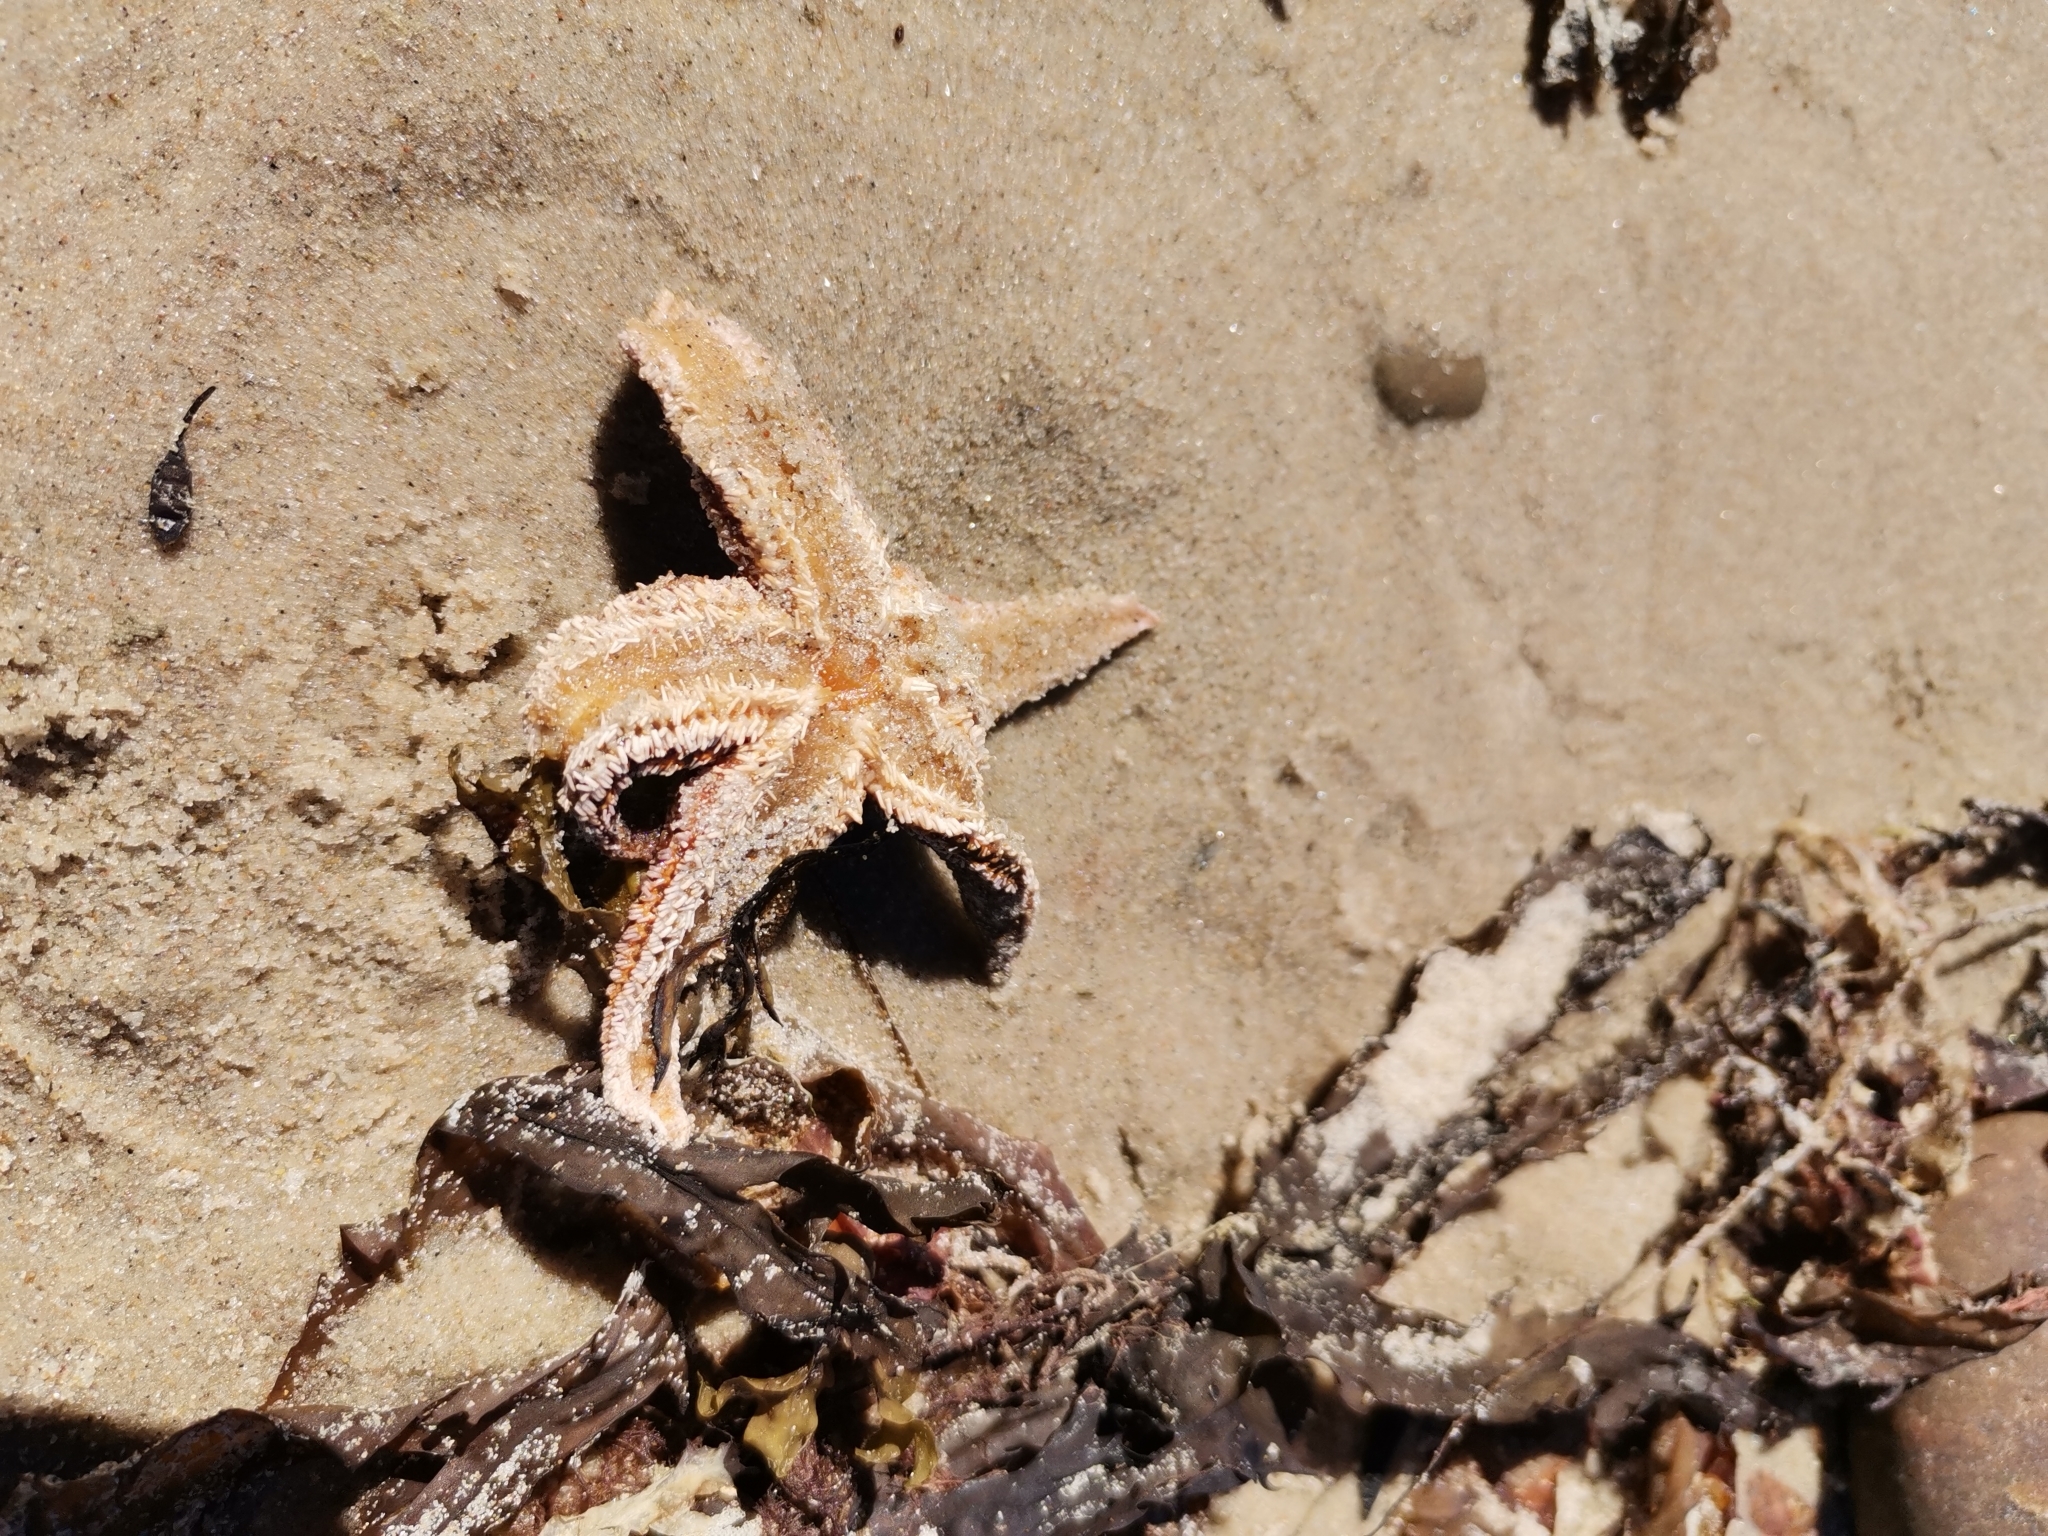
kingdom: Animalia
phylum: Echinodermata
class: Asteroidea
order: Forcipulatida
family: Asteriidae
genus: Asterias
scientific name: Asterias rubens
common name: Common starfish
